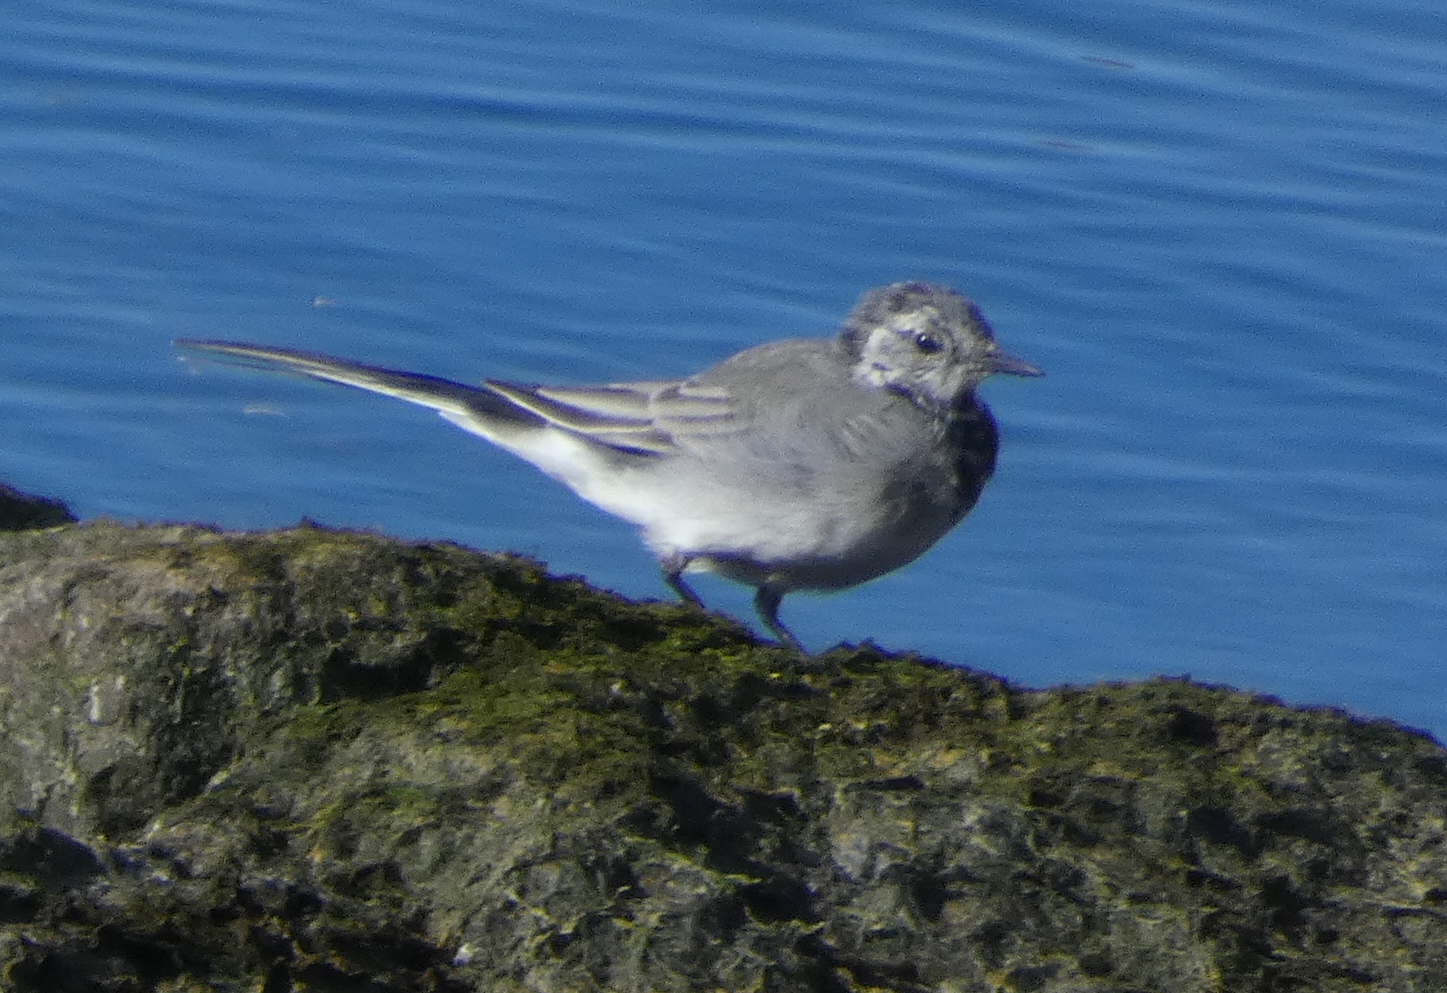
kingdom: Animalia
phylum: Chordata
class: Aves
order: Passeriformes
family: Motacillidae
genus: Motacilla
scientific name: Motacilla alba
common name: White wagtail
